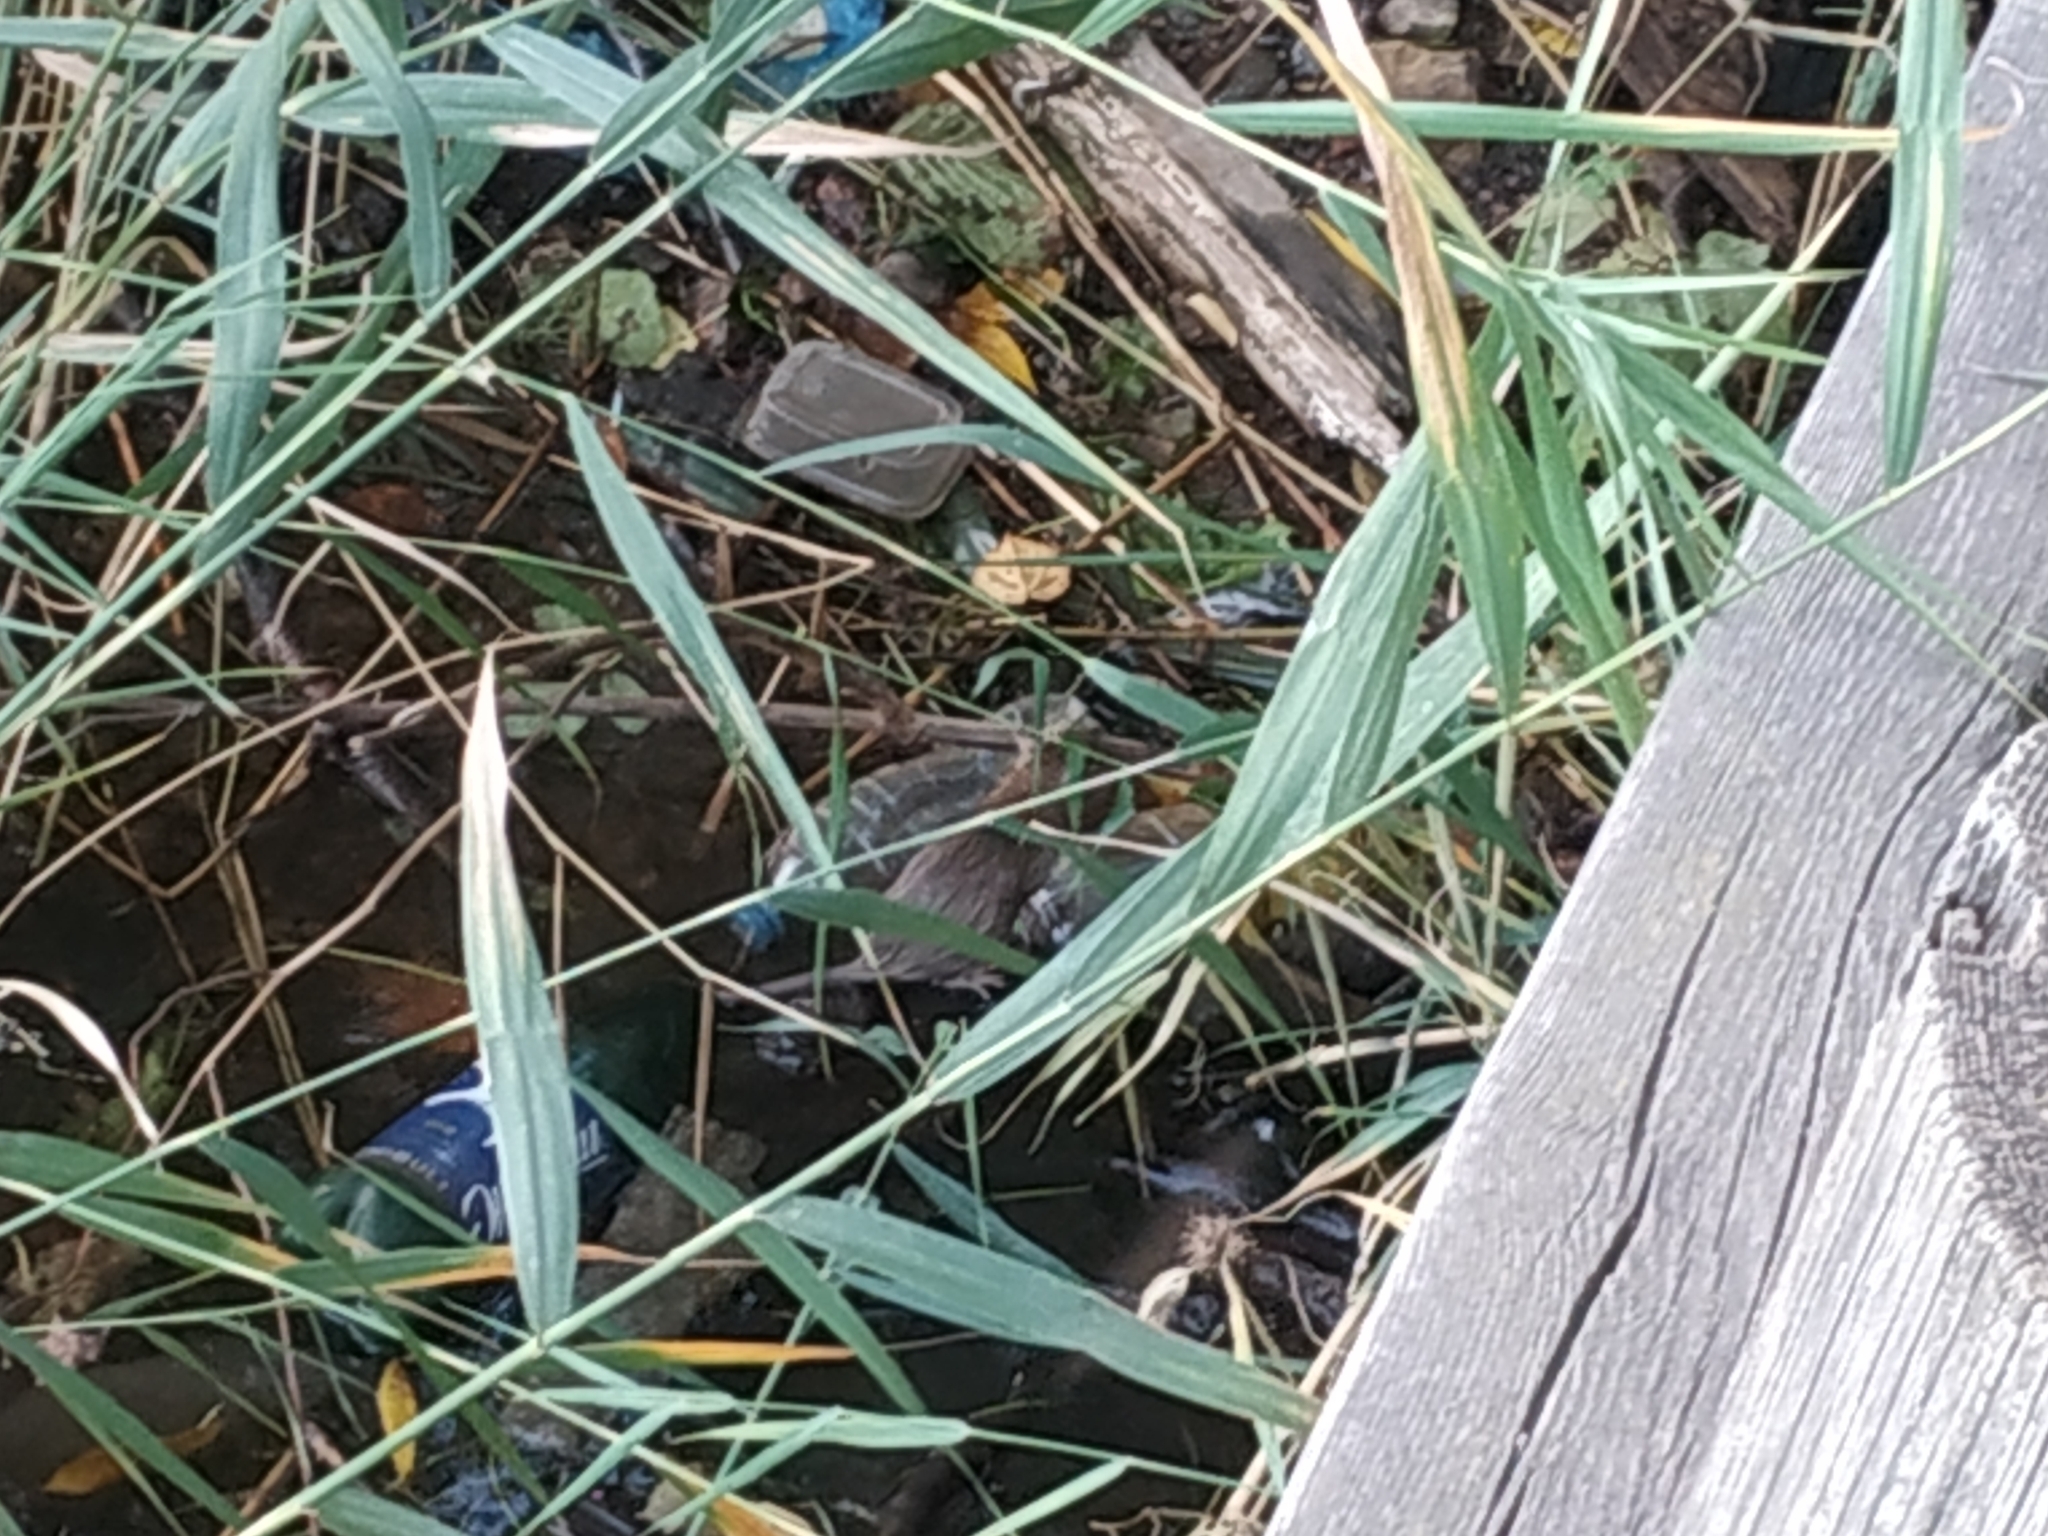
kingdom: Animalia
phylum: Chordata
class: Mammalia
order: Rodentia
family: Muridae
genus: Rattus
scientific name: Rattus norvegicus
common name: Brown rat
